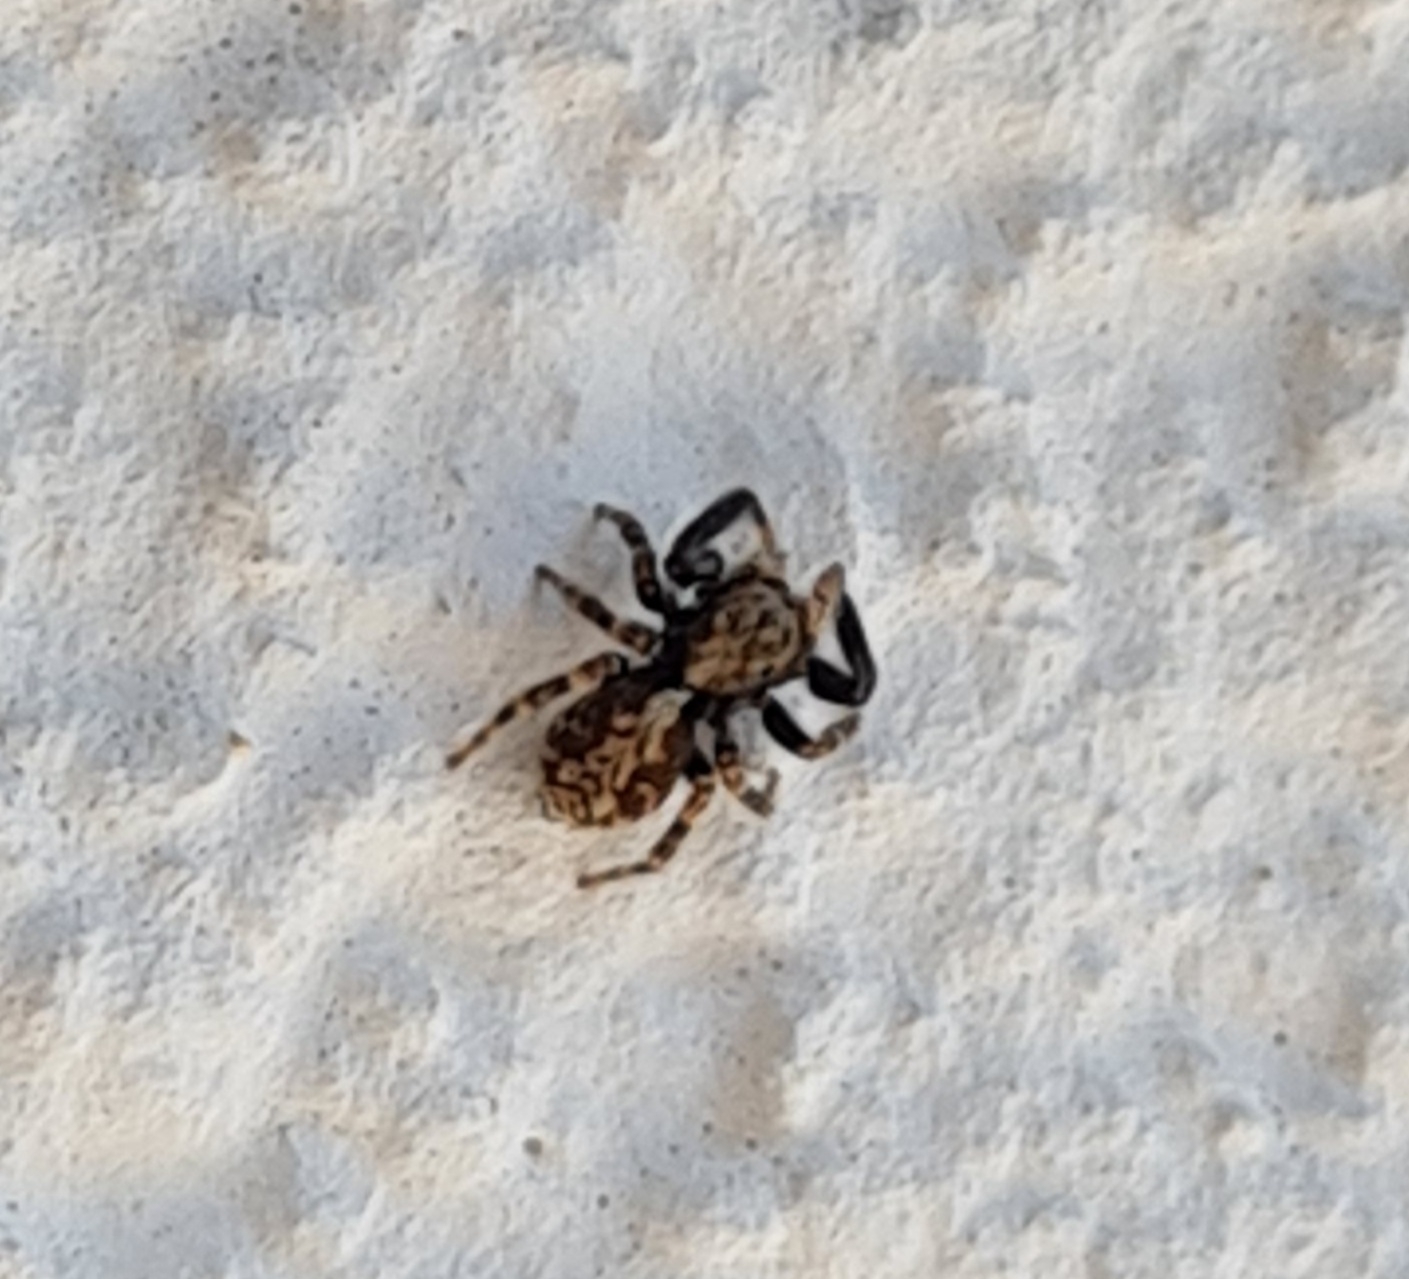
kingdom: Animalia
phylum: Arthropoda
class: Arachnida
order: Araneae
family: Salticidae
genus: Pseudeuophrys
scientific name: Pseudeuophrys lanigera
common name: Jumping spider
